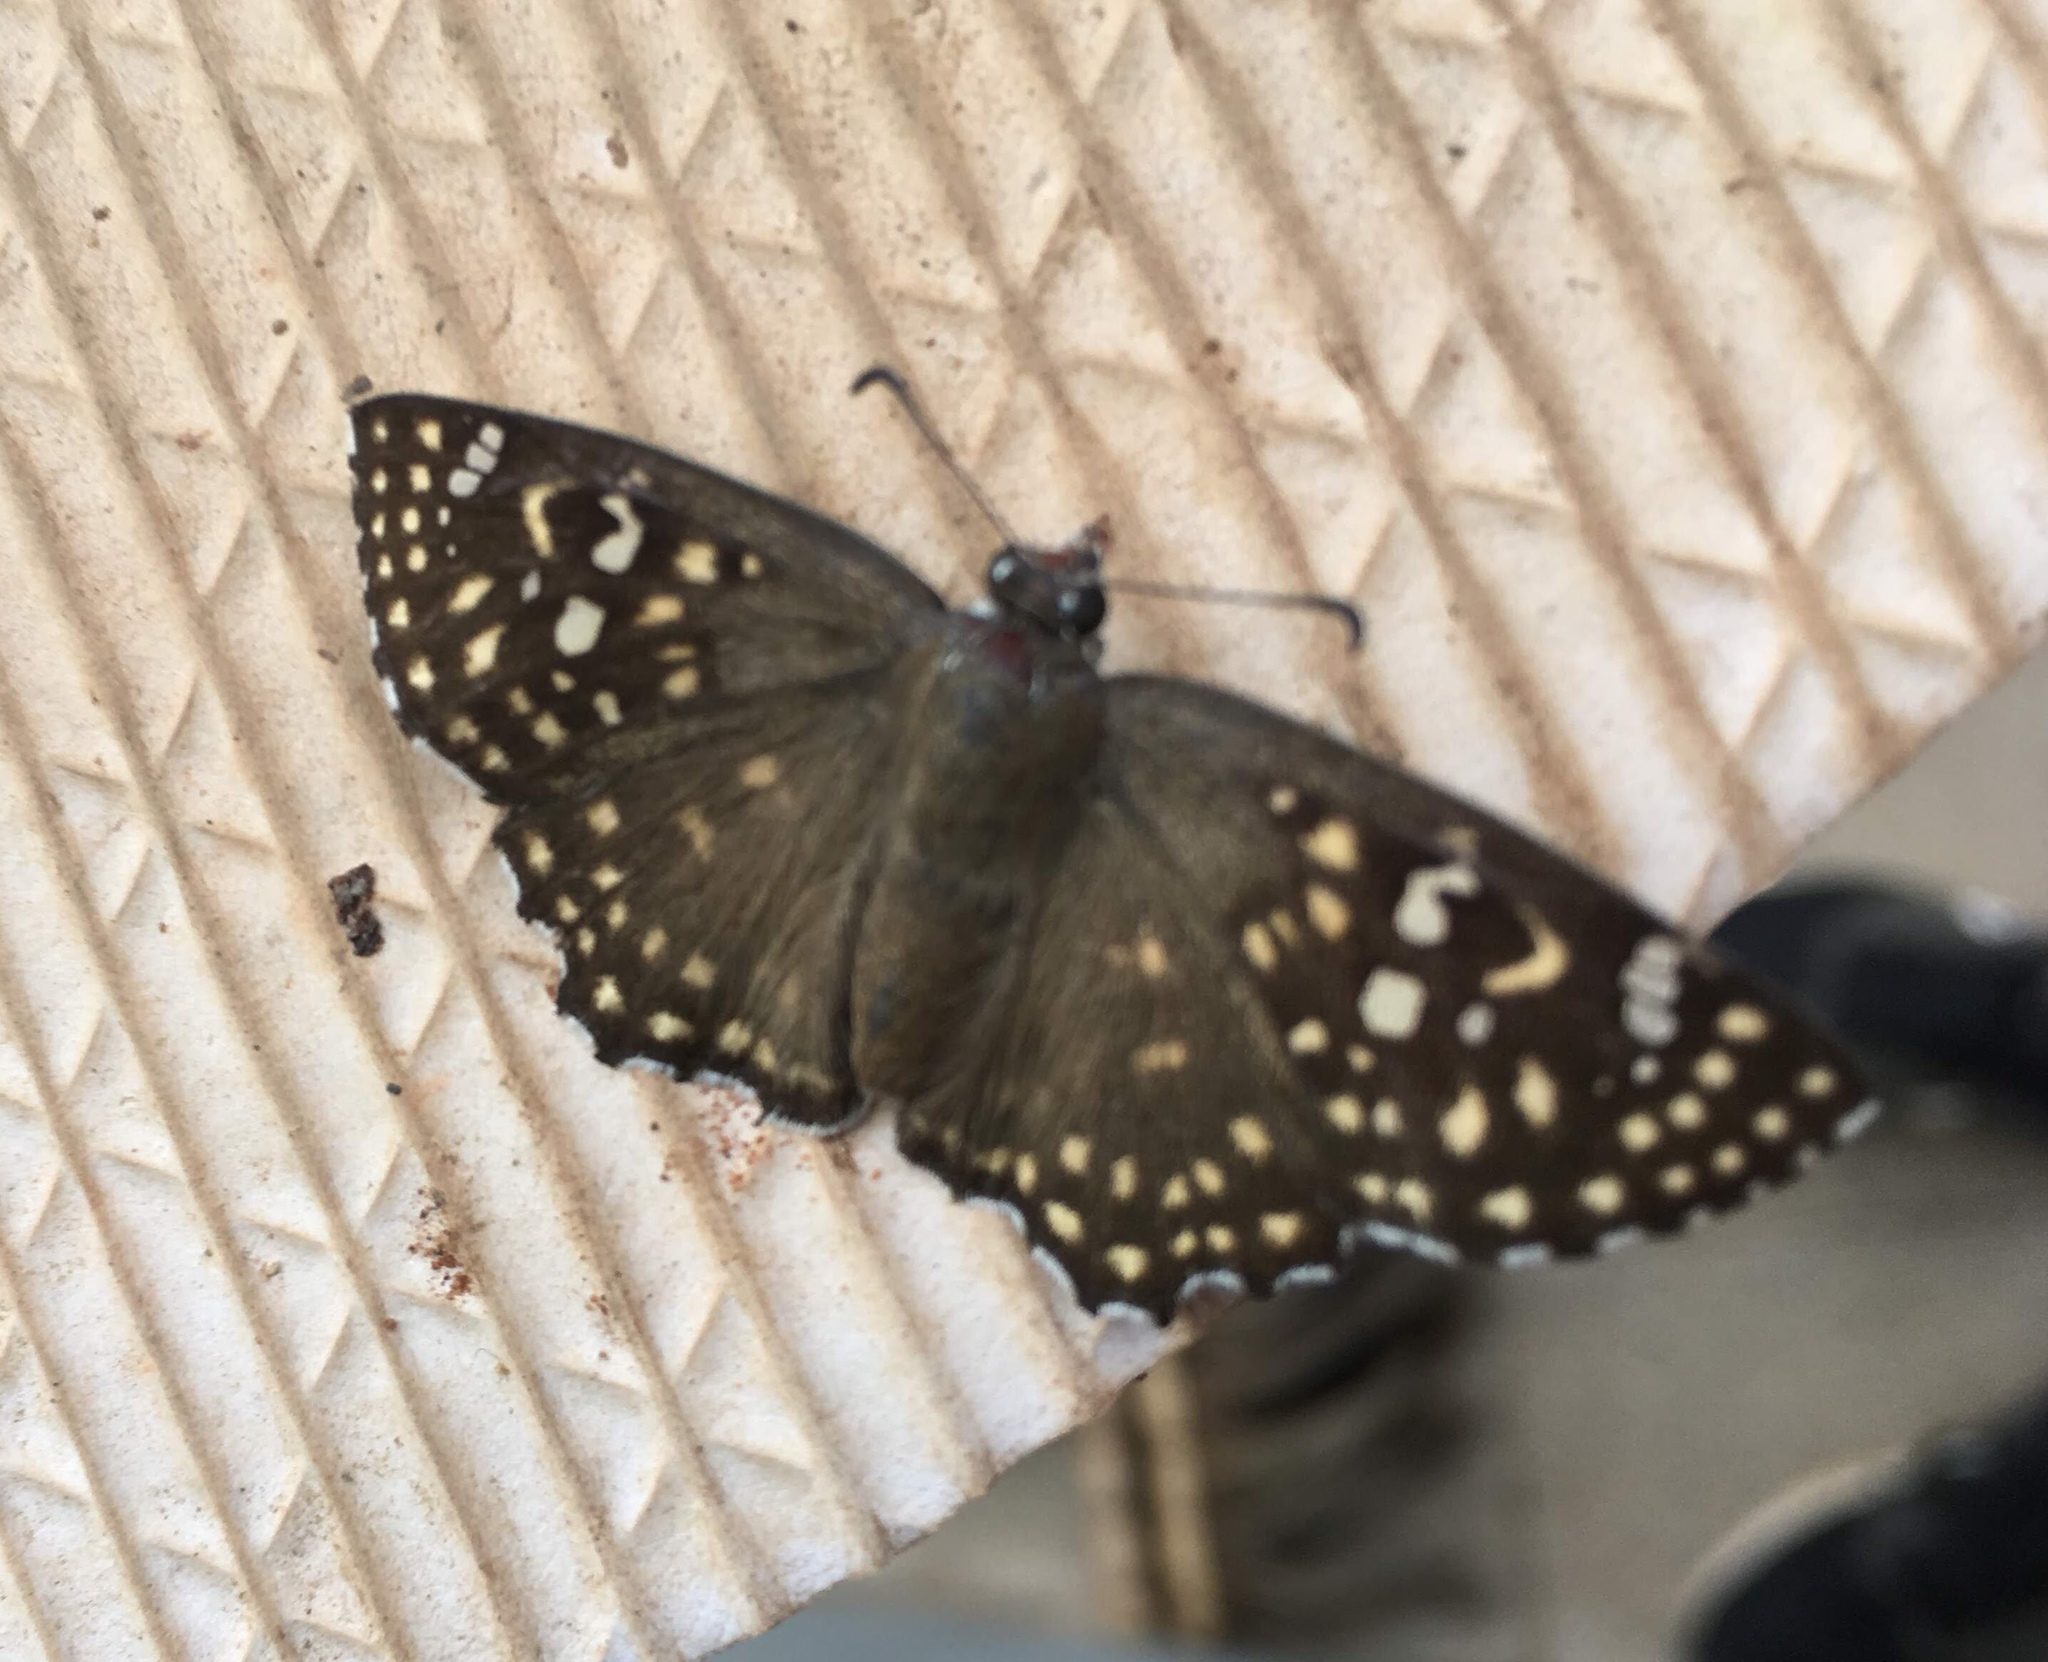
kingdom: Animalia
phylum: Arthropoda
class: Insecta
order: Lepidoptera
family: Hesperiidae
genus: Caprona
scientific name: Caprona alida
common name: Spotted angle
